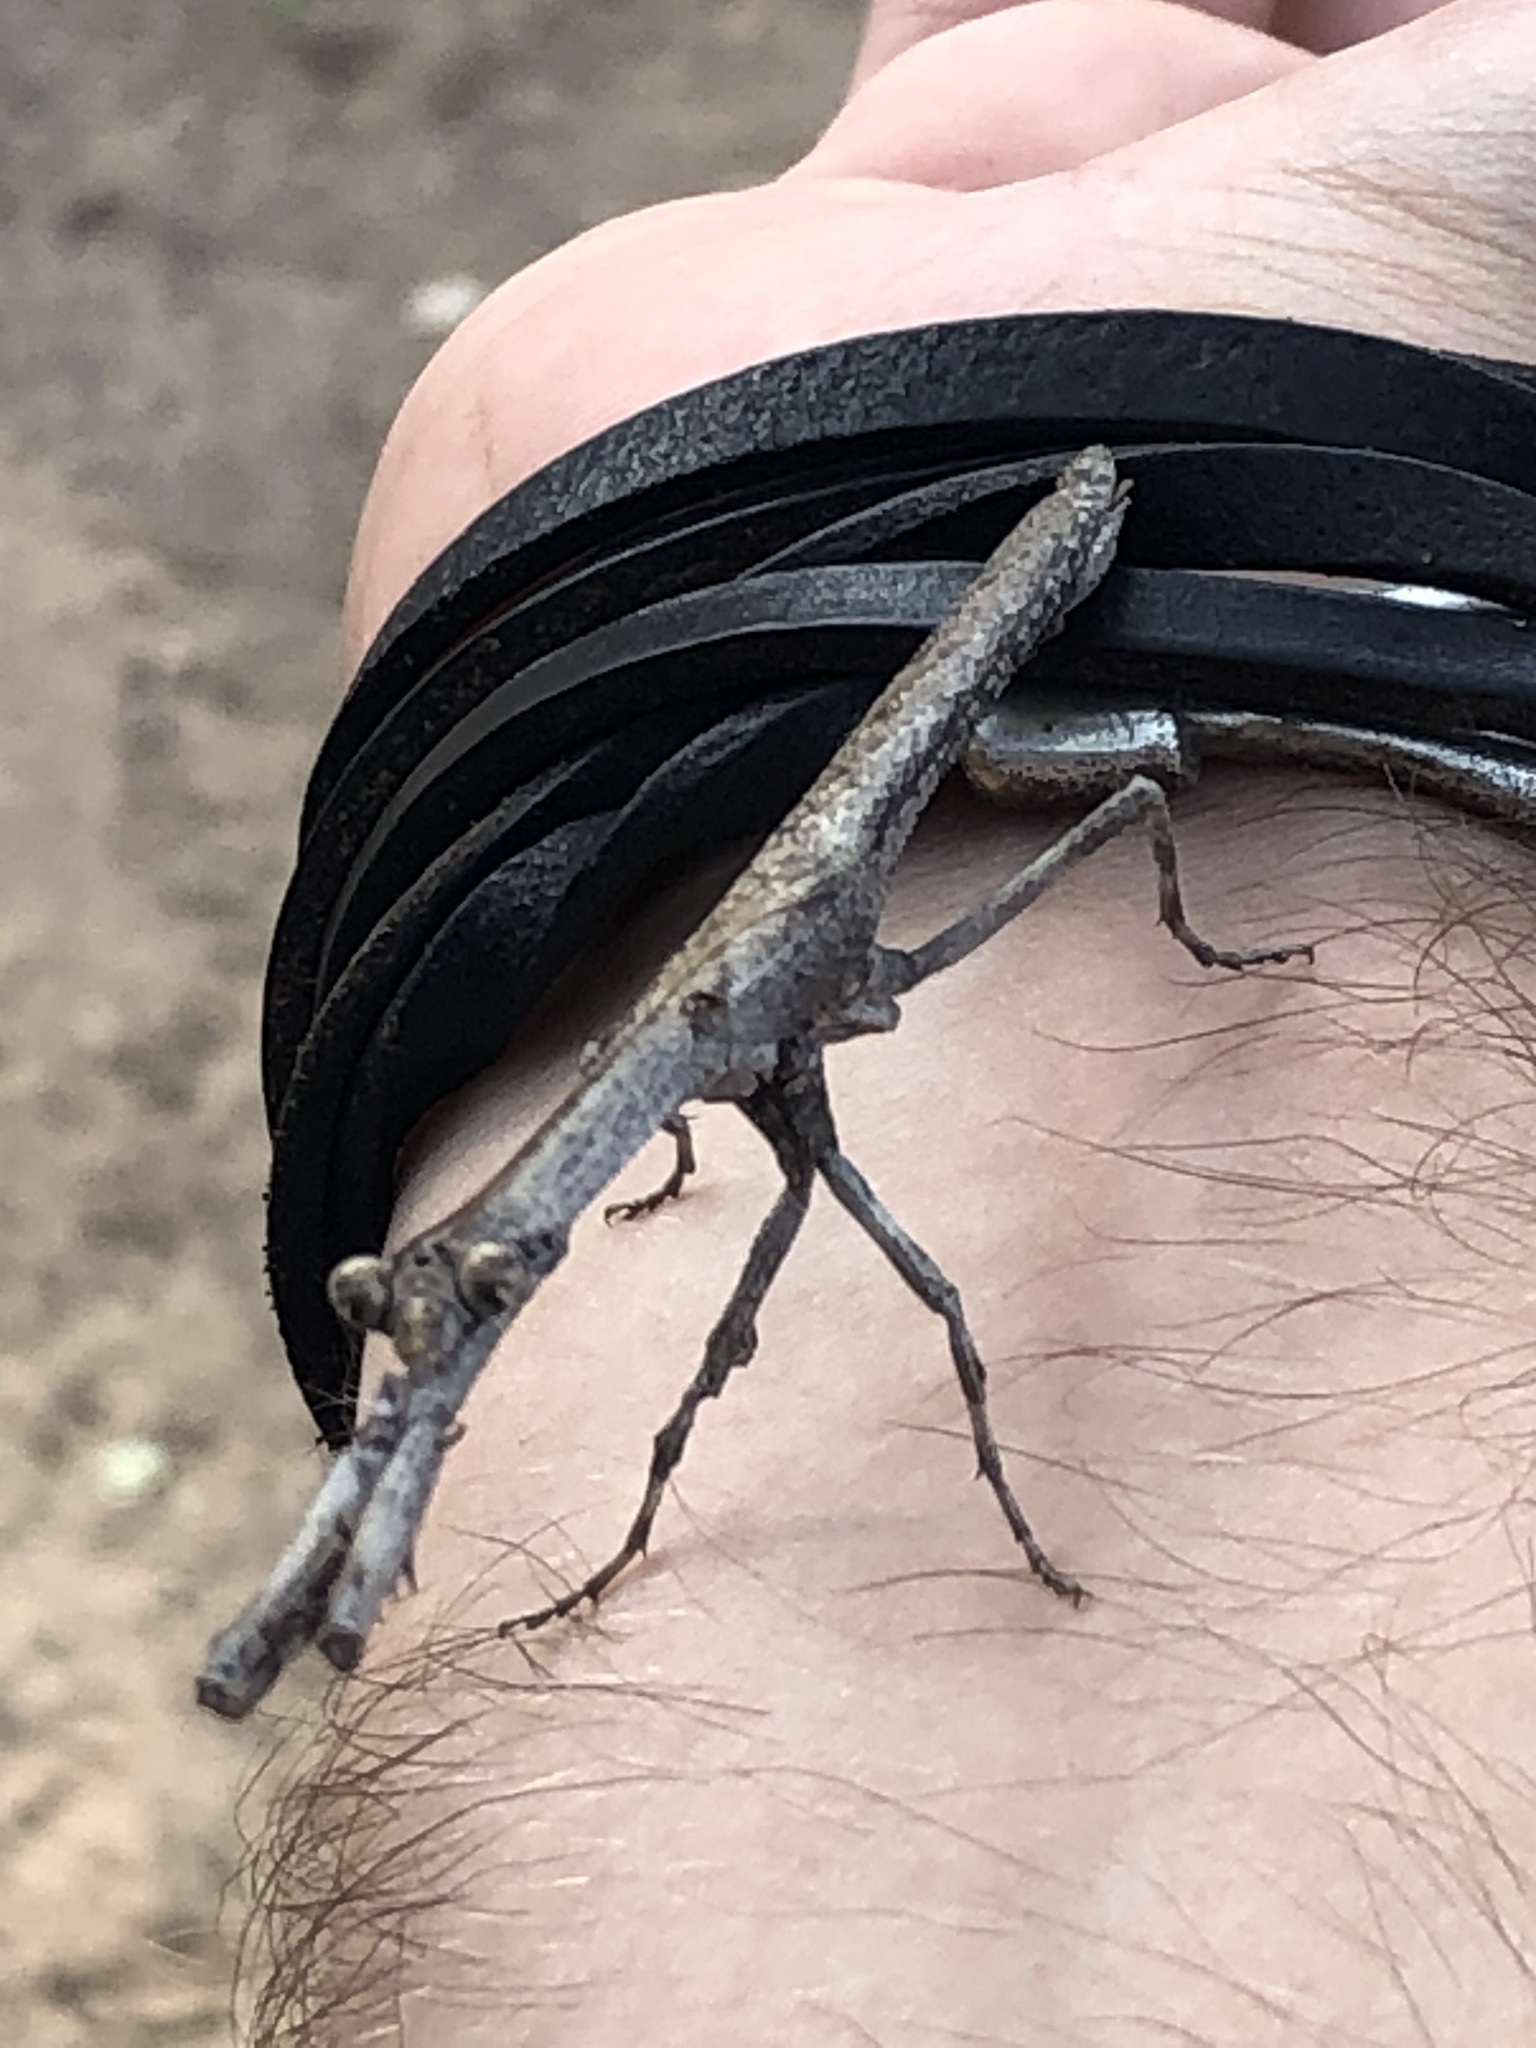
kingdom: Animalia
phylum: Arthropoda
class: Insecta
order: Mantodea
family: Deroplatyidae
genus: Popa
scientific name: Popa spurca
